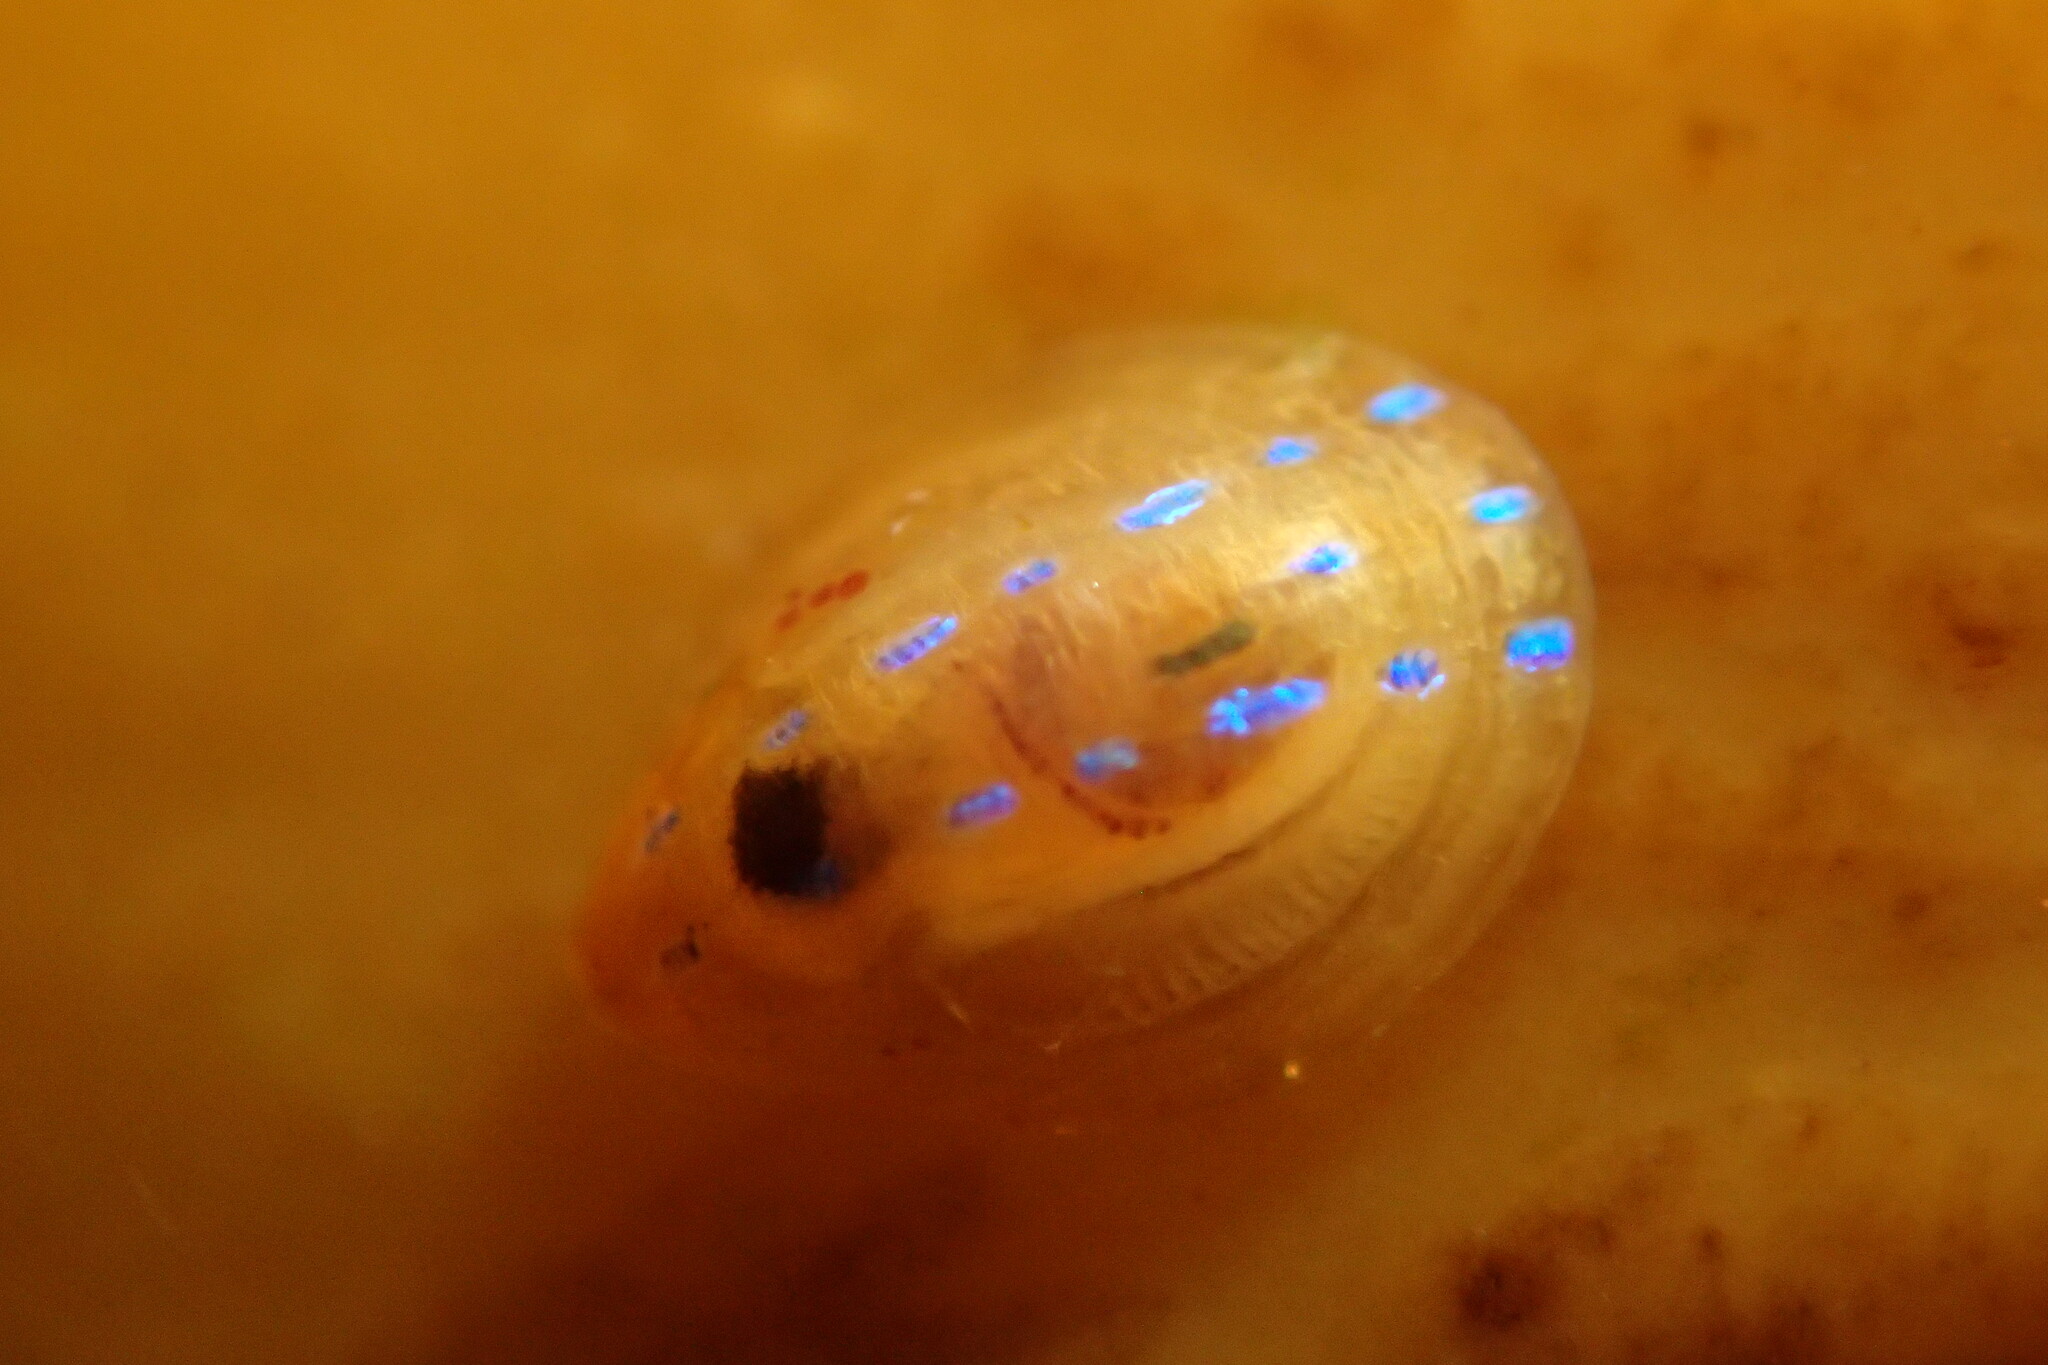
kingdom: Animalia
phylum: Mollusca
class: Gastropoda
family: Patellidae
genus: Patella
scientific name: Patella pellucida
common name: Blue-rayed limpet
